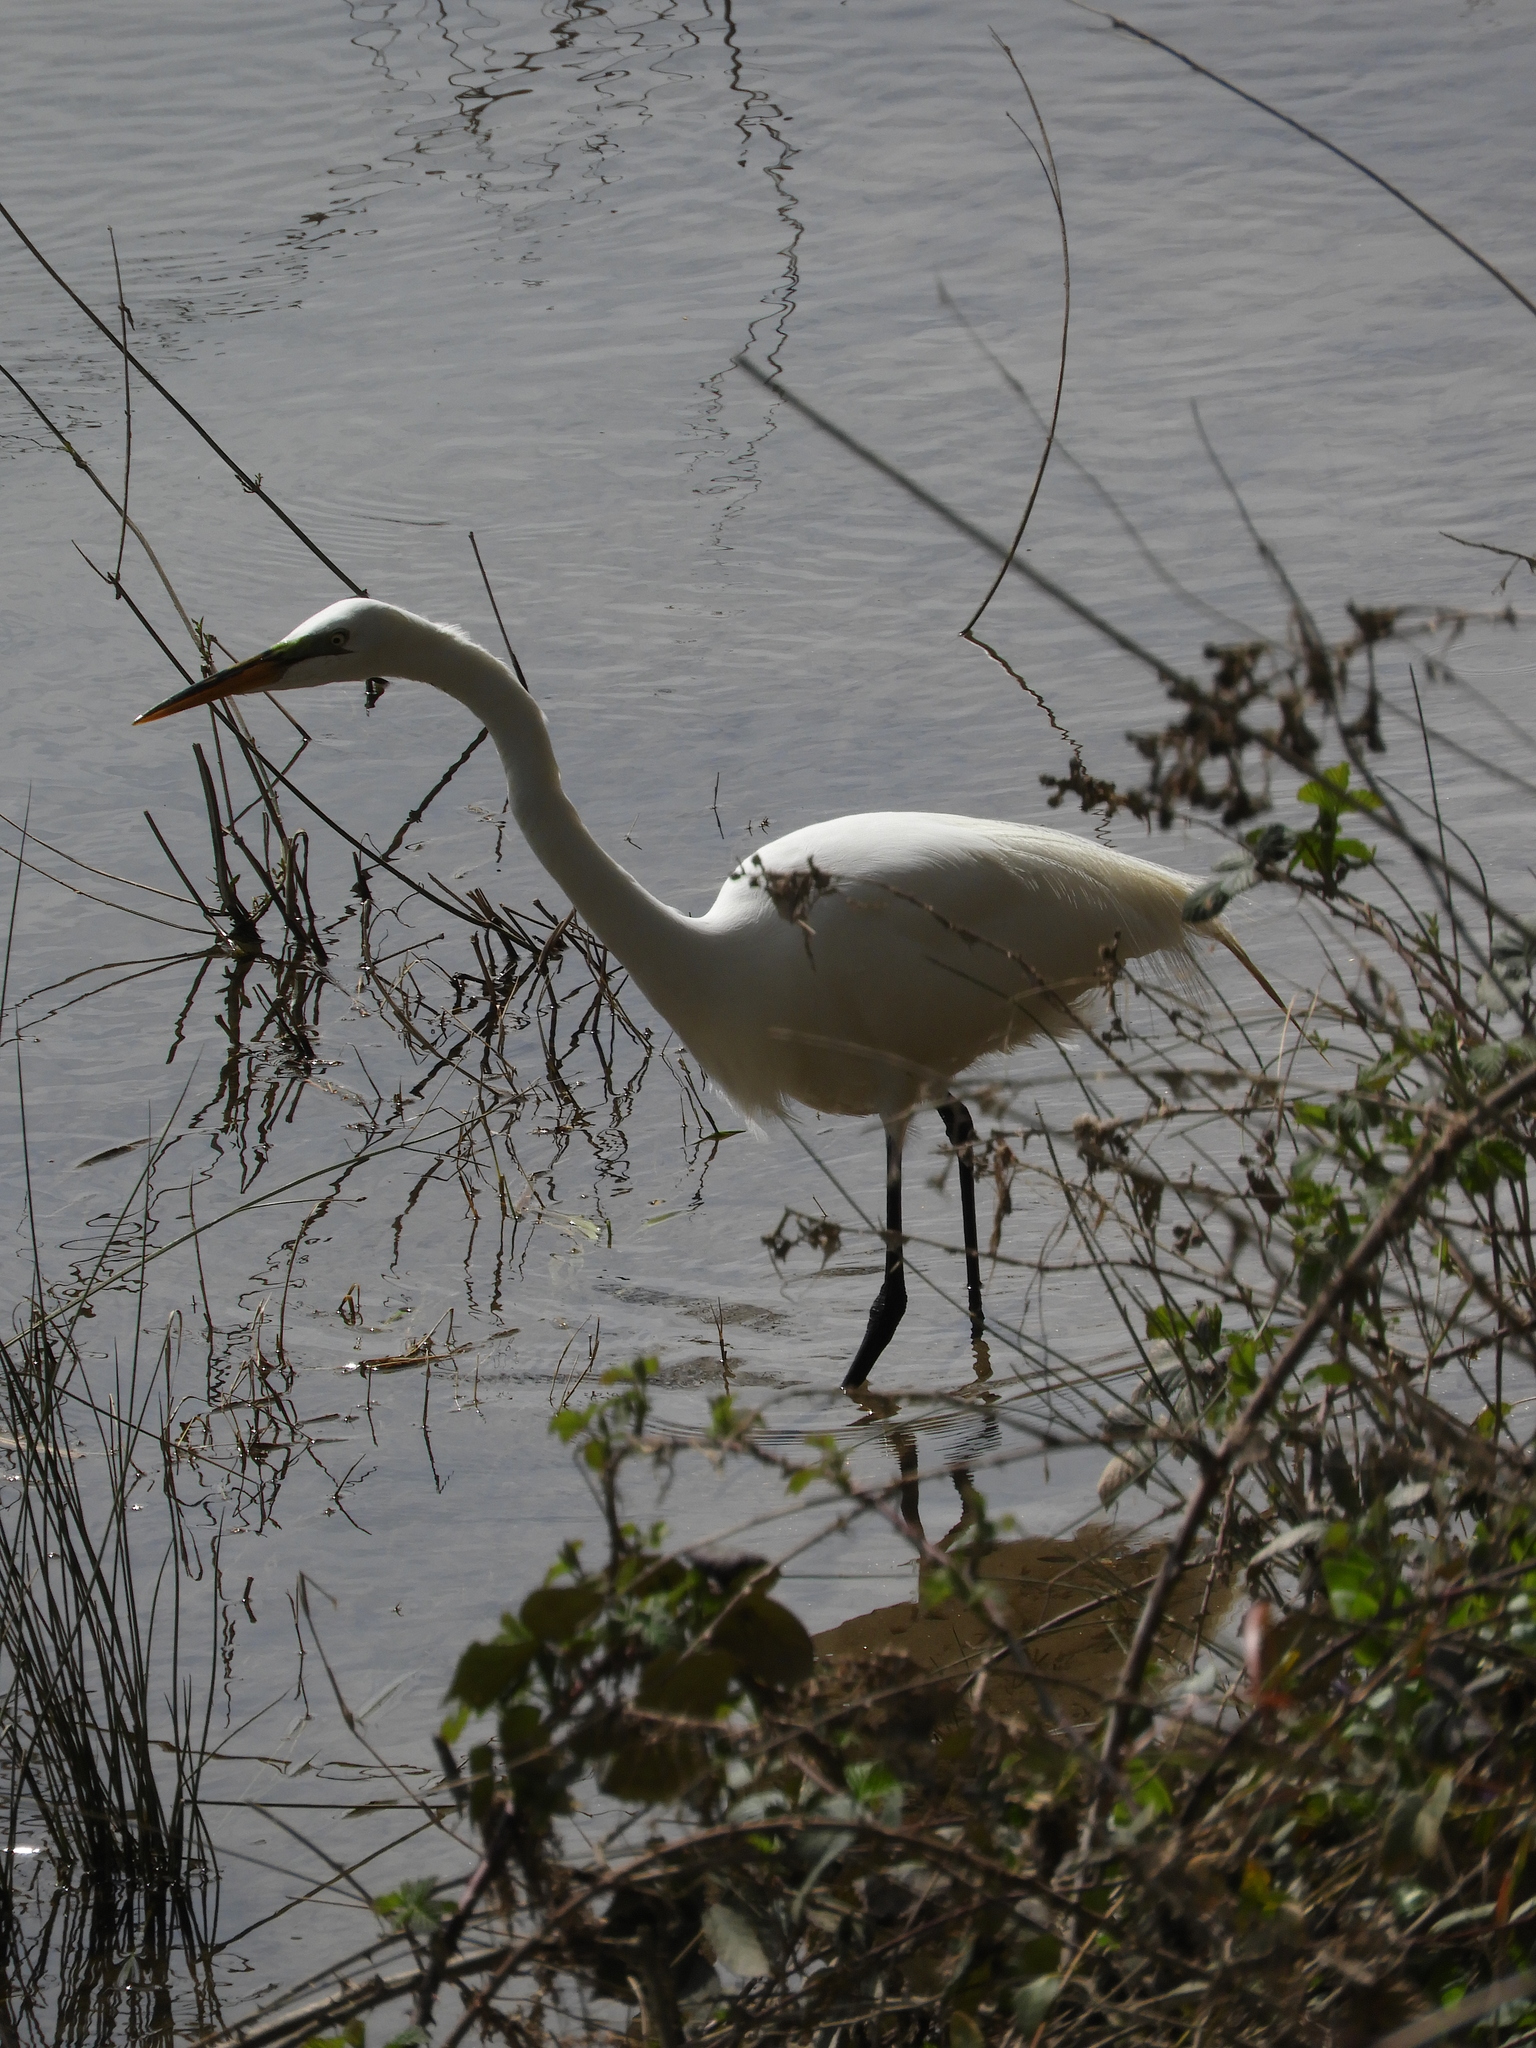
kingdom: Animalia
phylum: Chordata
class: Aves
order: Pelecaniformes
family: Ardeidae
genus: Ardea
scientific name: Ardea alba
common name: Great egret
